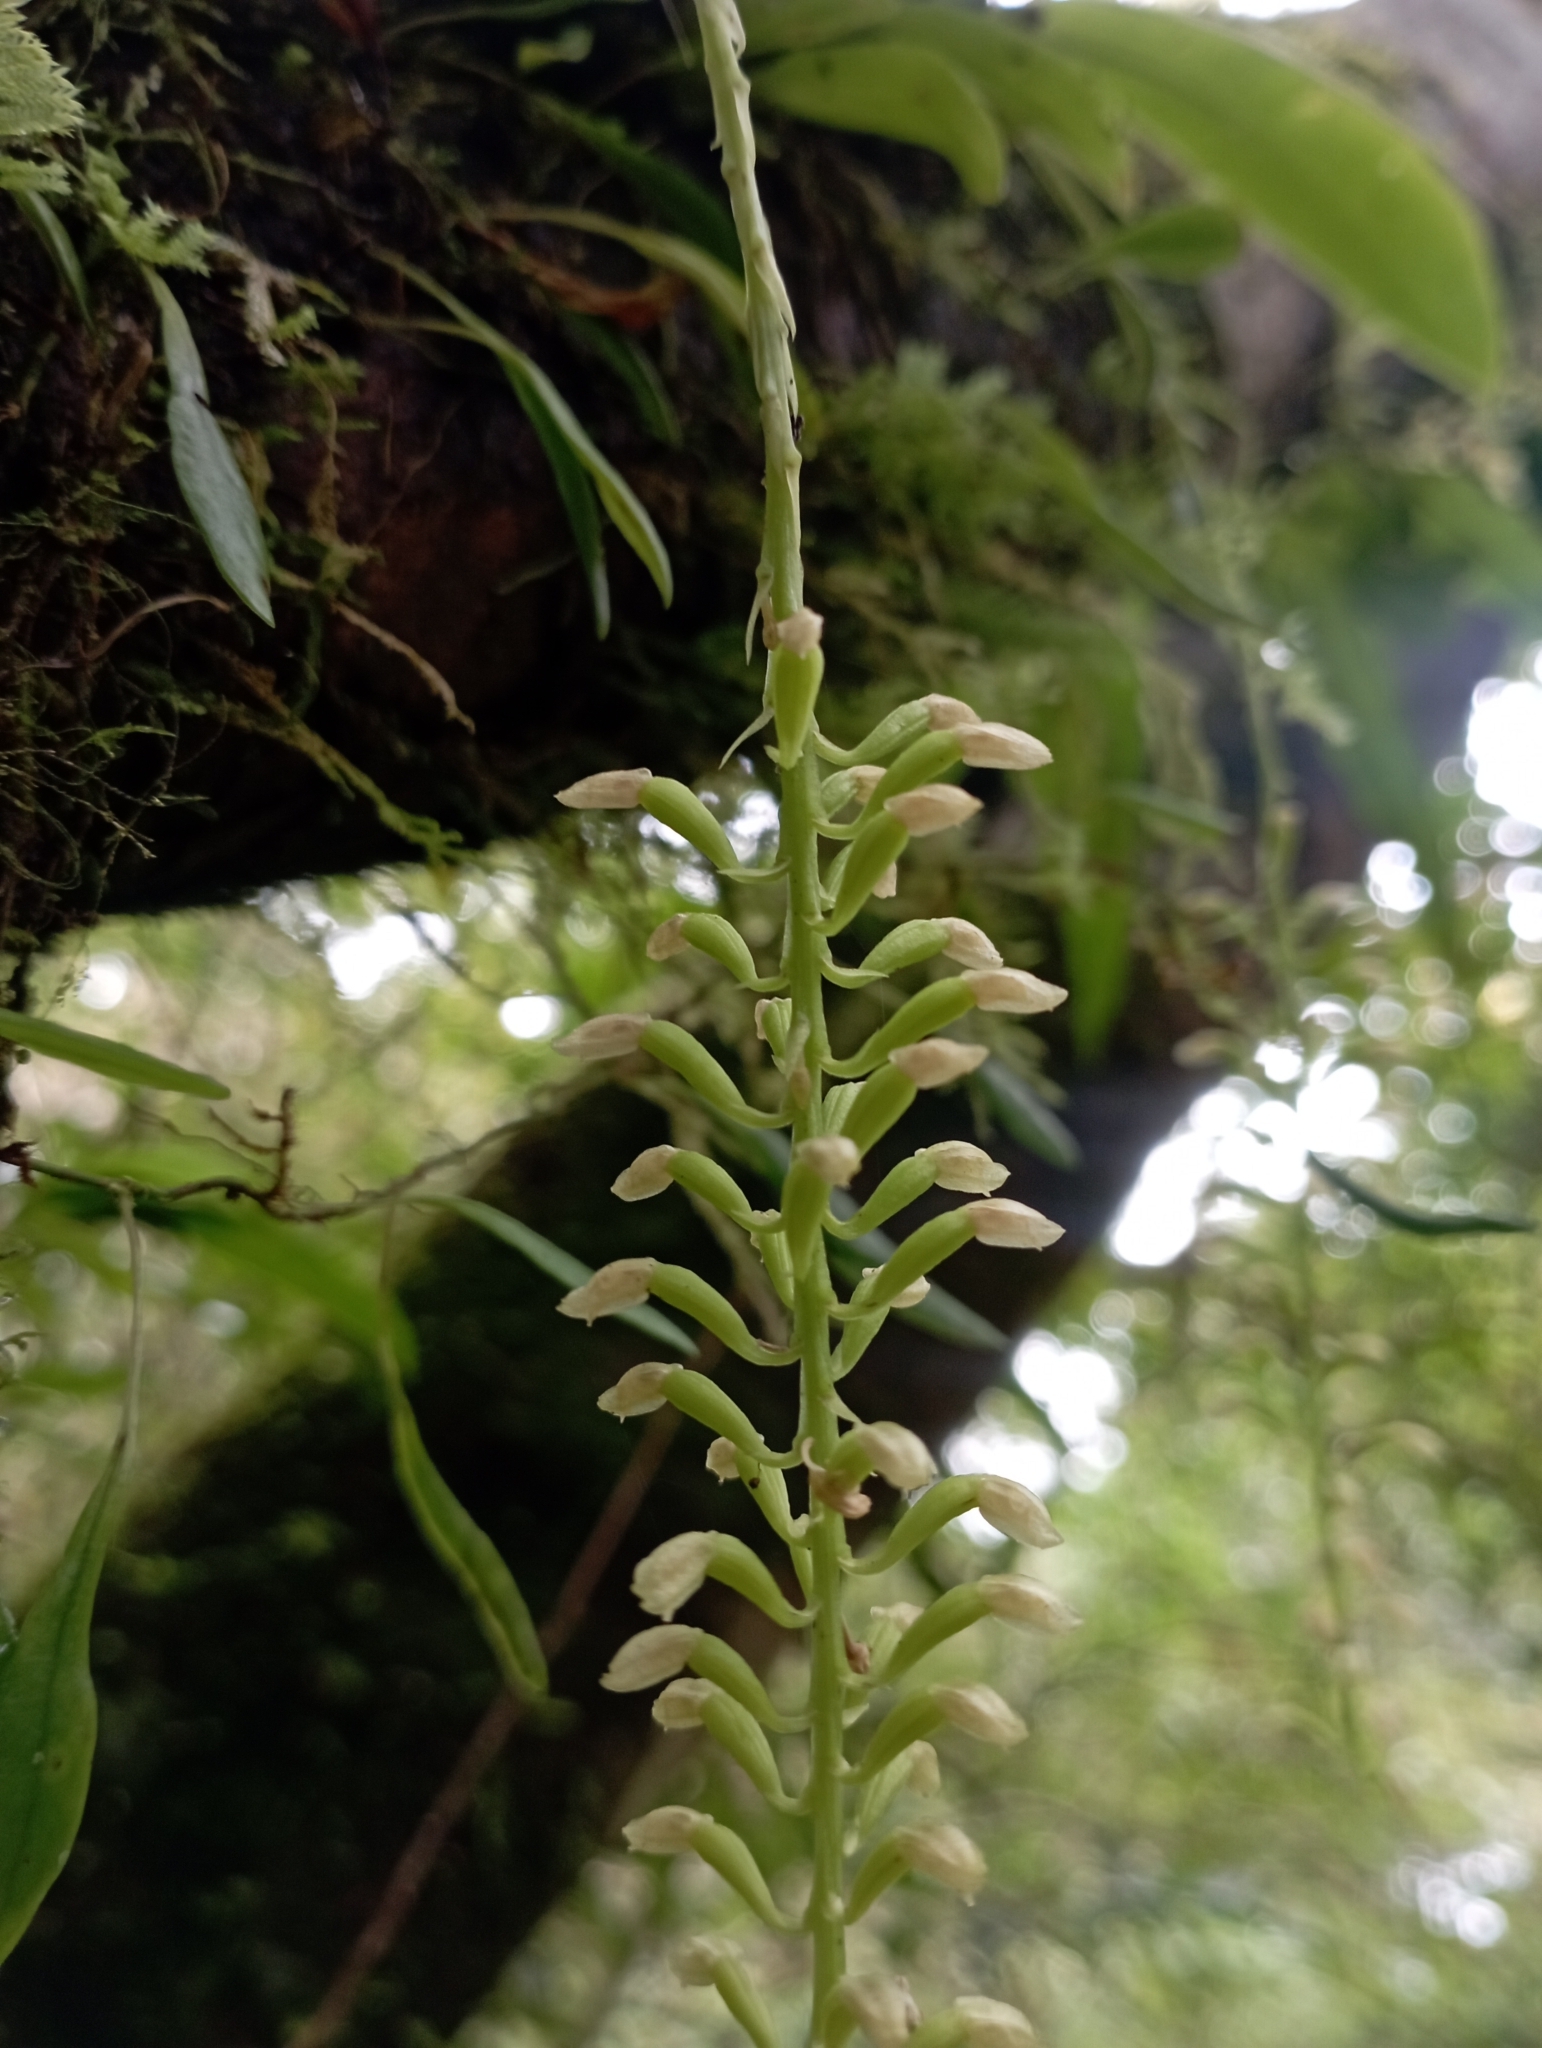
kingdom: Plantae
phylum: Tracheophyta
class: Liliopsida
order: Asparagales
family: Orchidaceae
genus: Liparis
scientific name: Liparis elliptica
